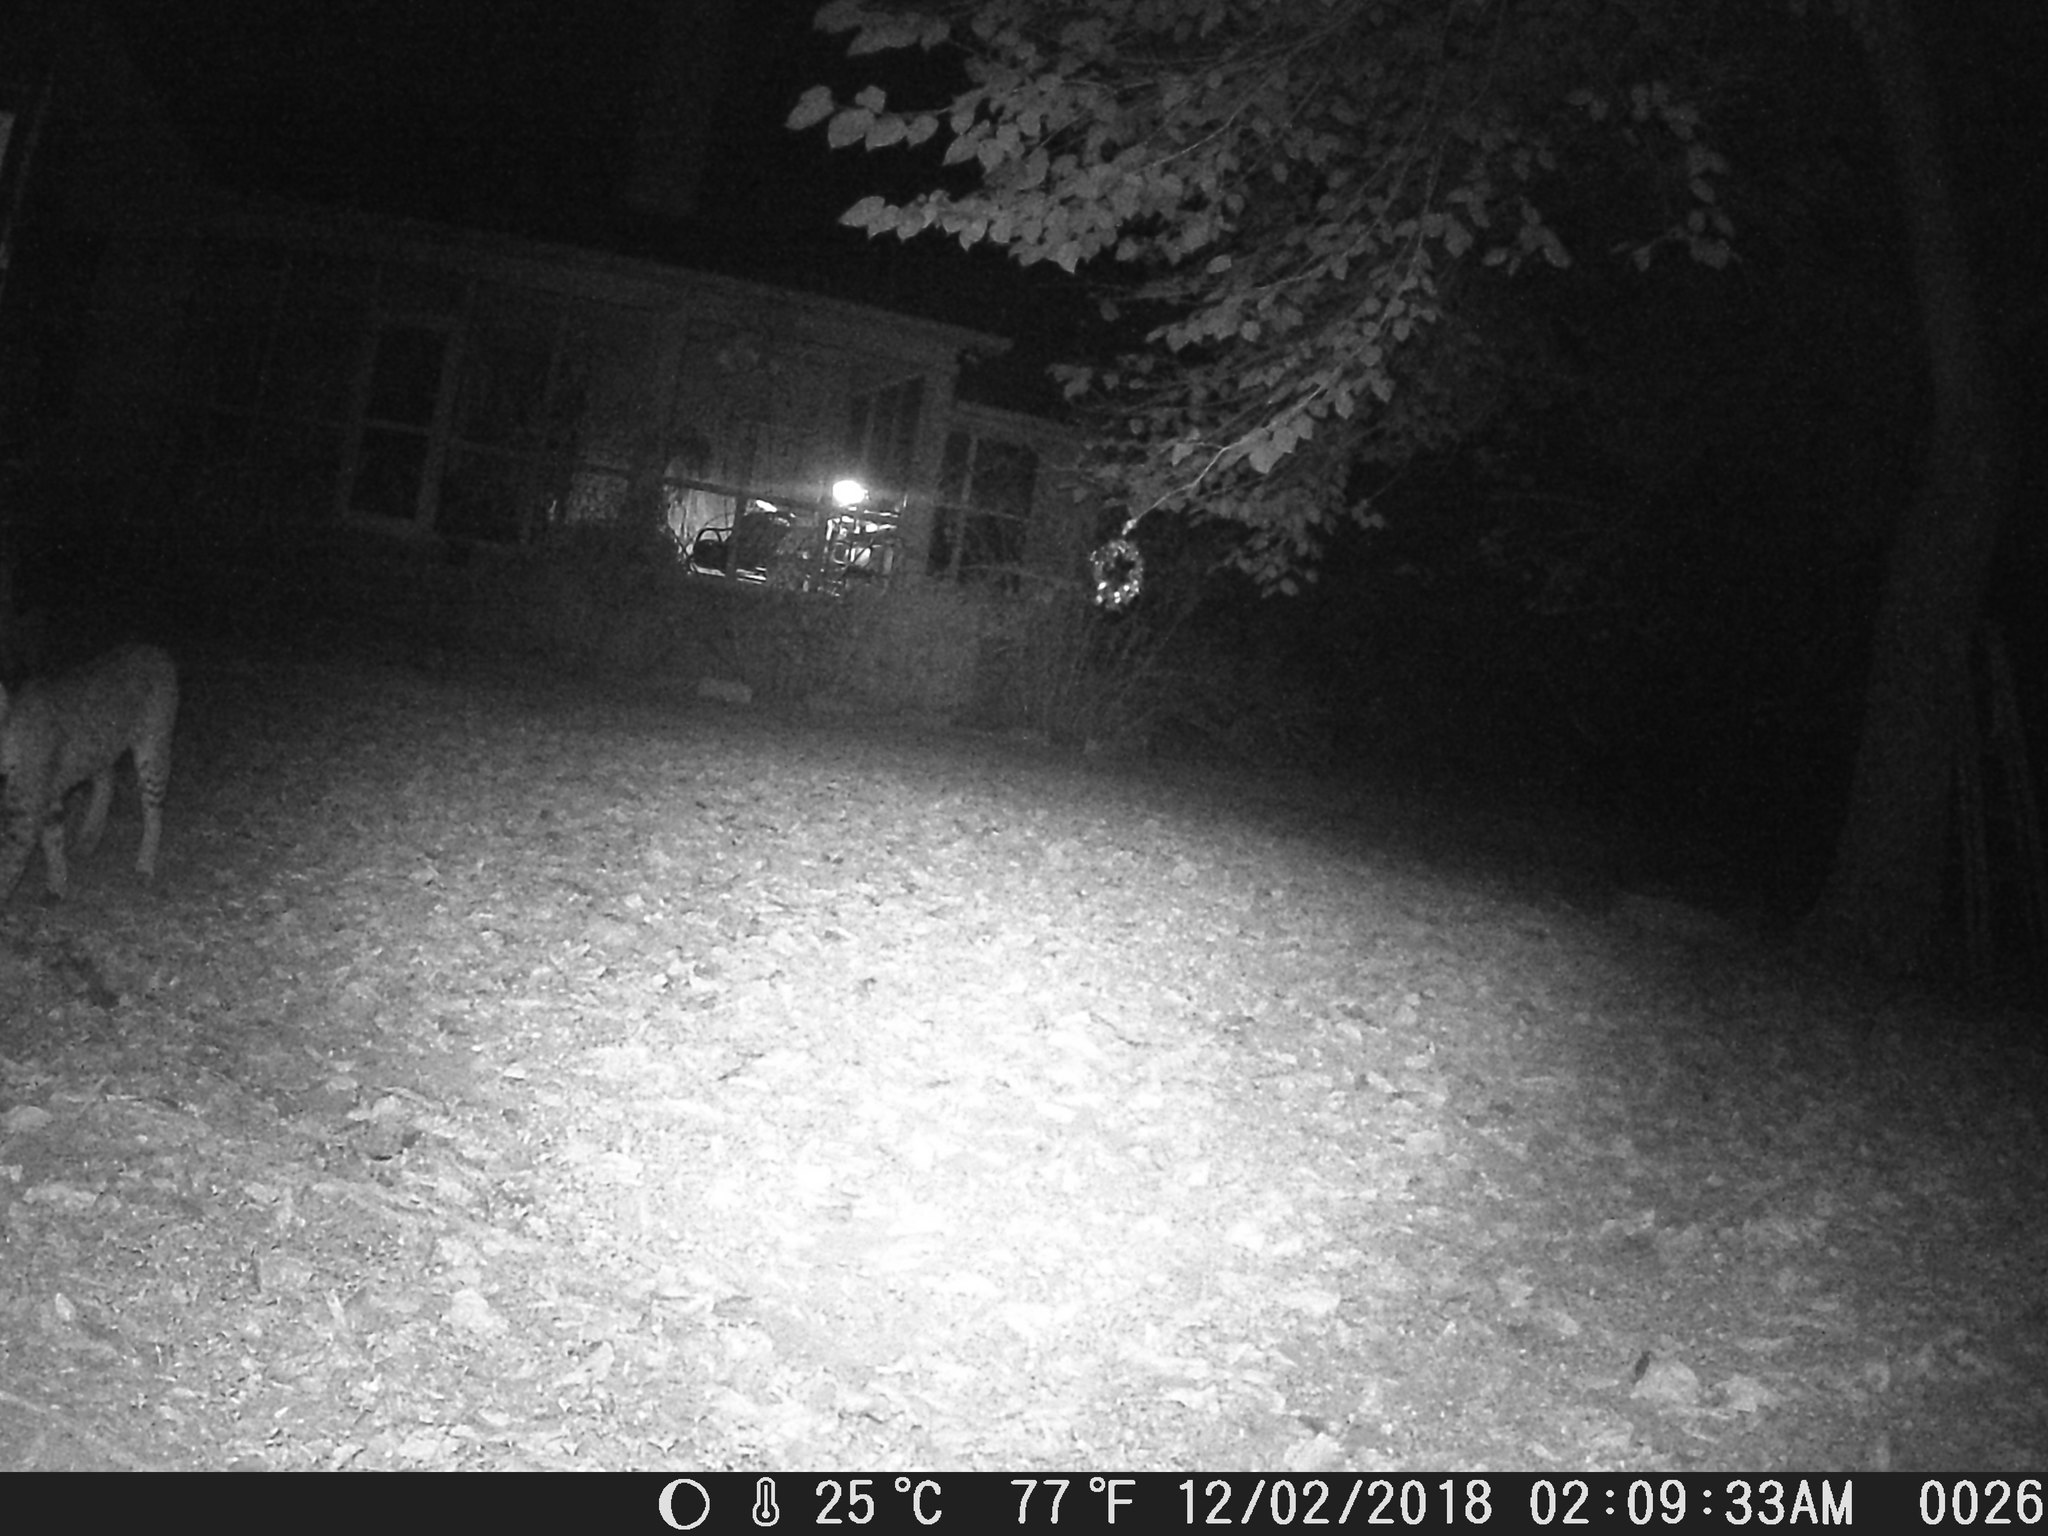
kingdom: Animalia
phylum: Chordata
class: Mammalia
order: Carnivora
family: Felidae
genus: Lynx
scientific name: Lynx rufus
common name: Bobcat
